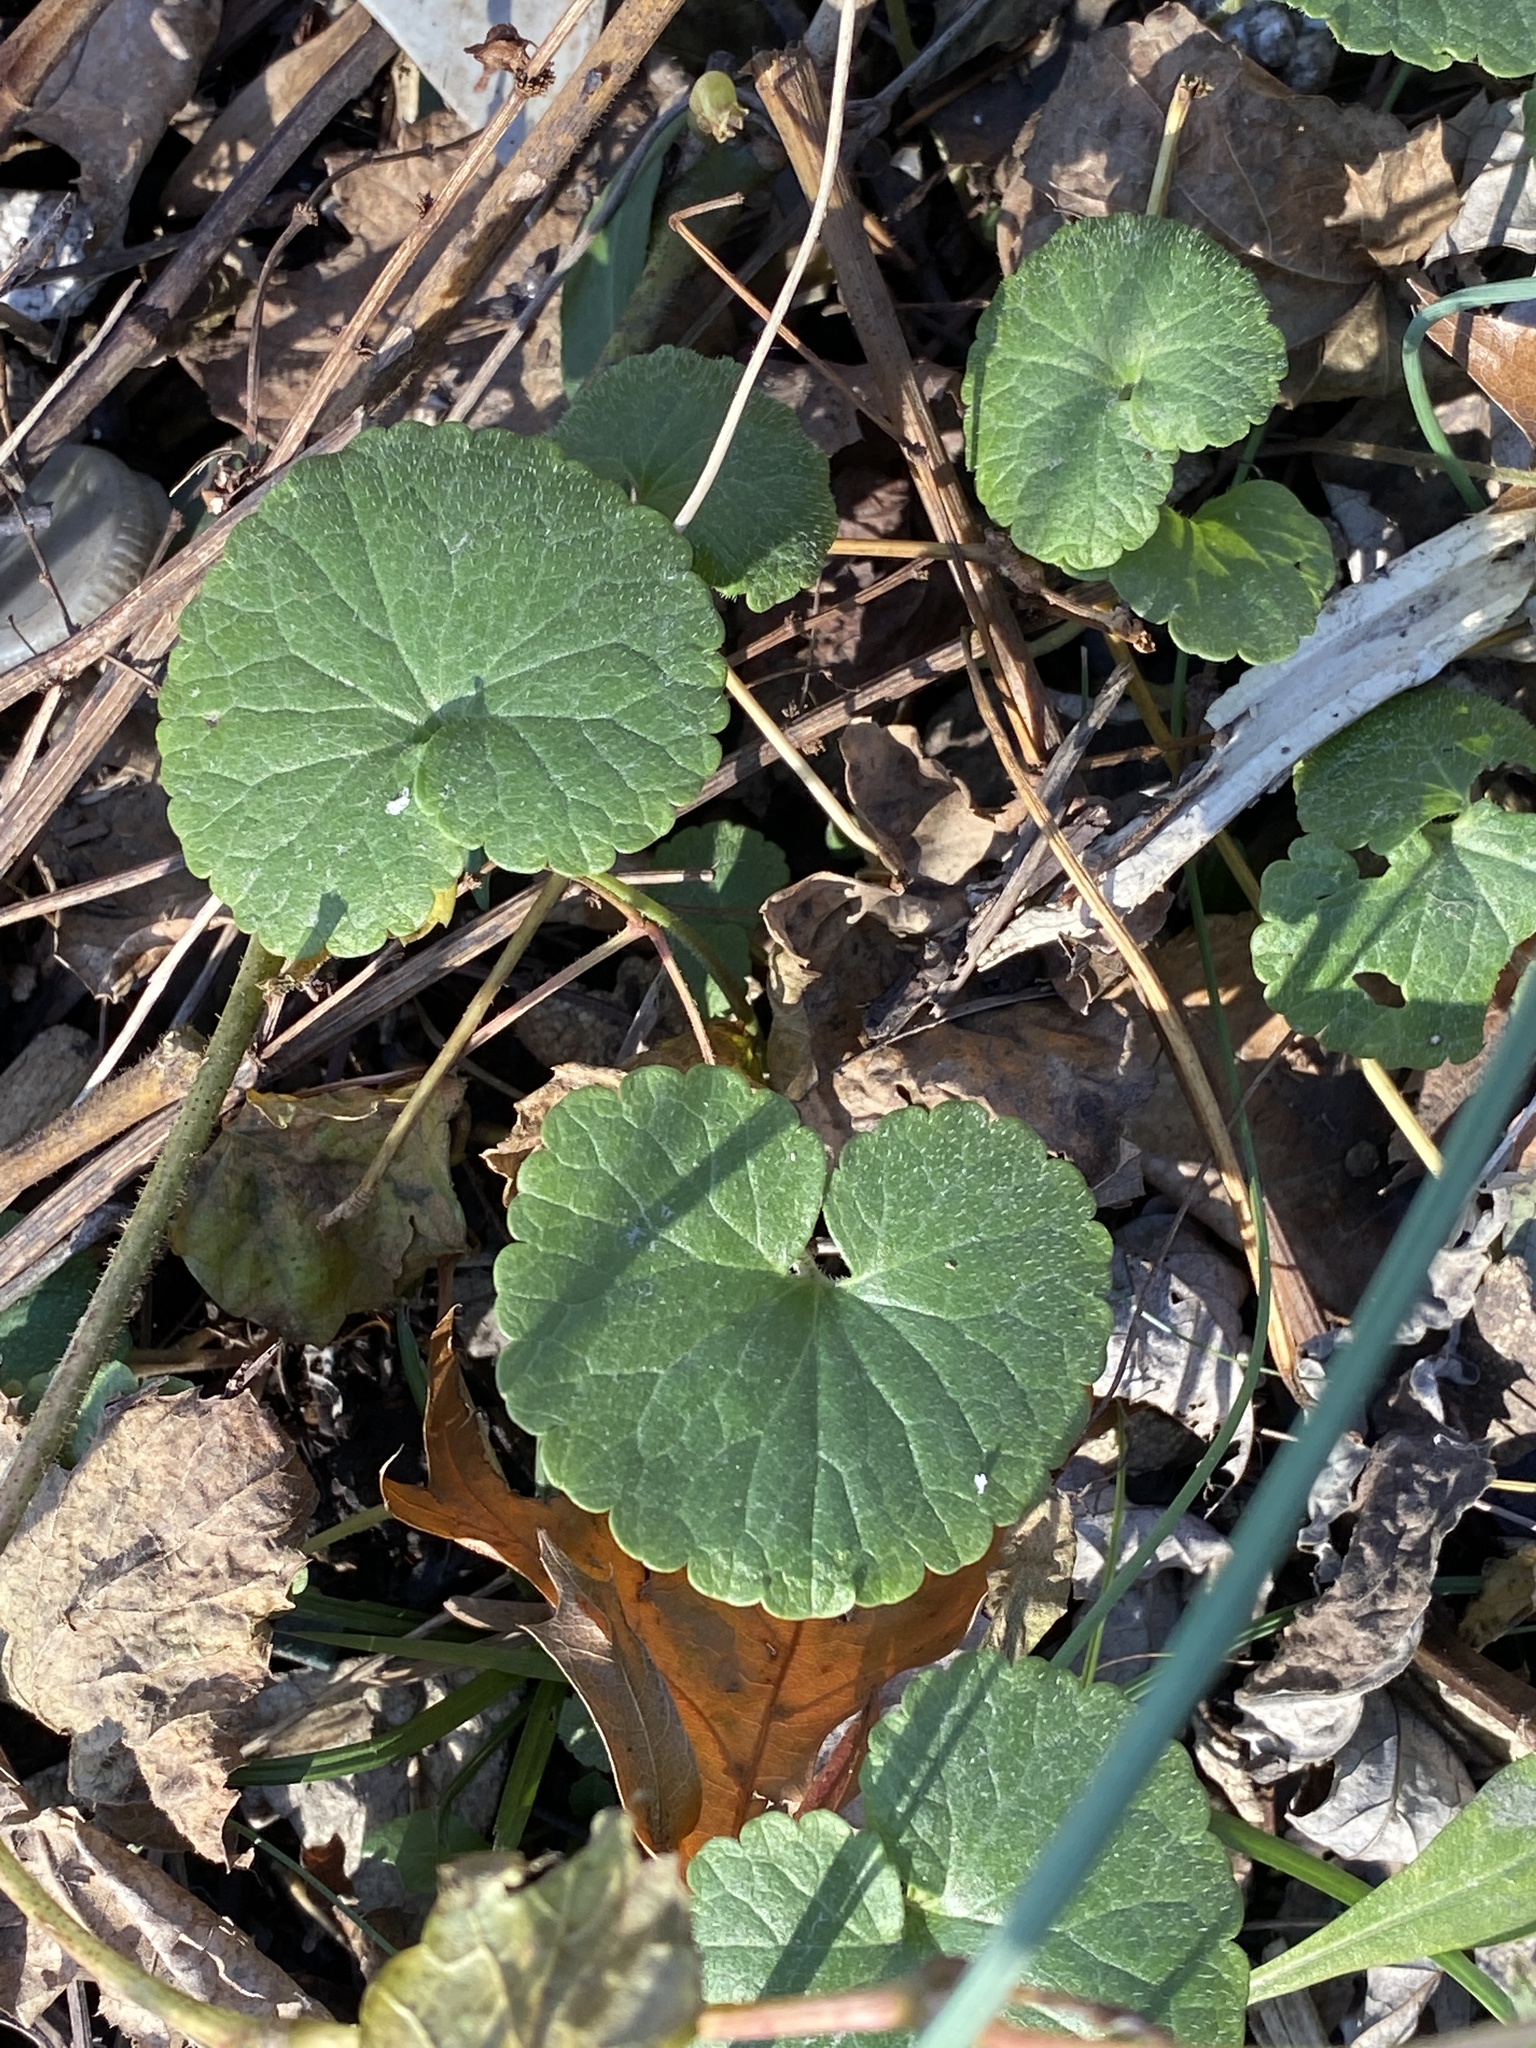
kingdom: Plantae
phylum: Tracheophyta
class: Magnoliopsida
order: Lamiales
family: Lamiaceae
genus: Glechoma
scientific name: Glechoma hederacea
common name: Ground ivy
